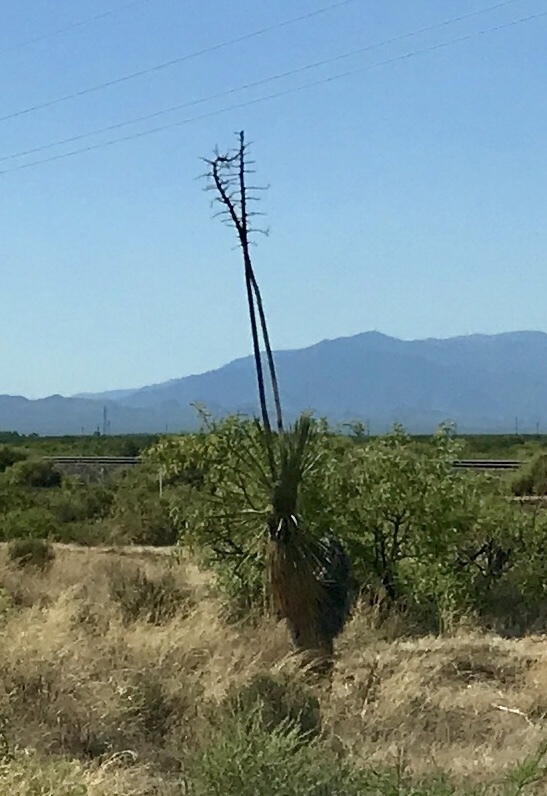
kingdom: Plantae
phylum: Tracheophyta
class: Liliopsida
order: Asparagales
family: Asparagaceae
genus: Yucca
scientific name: Yucca elata
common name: Palmella
